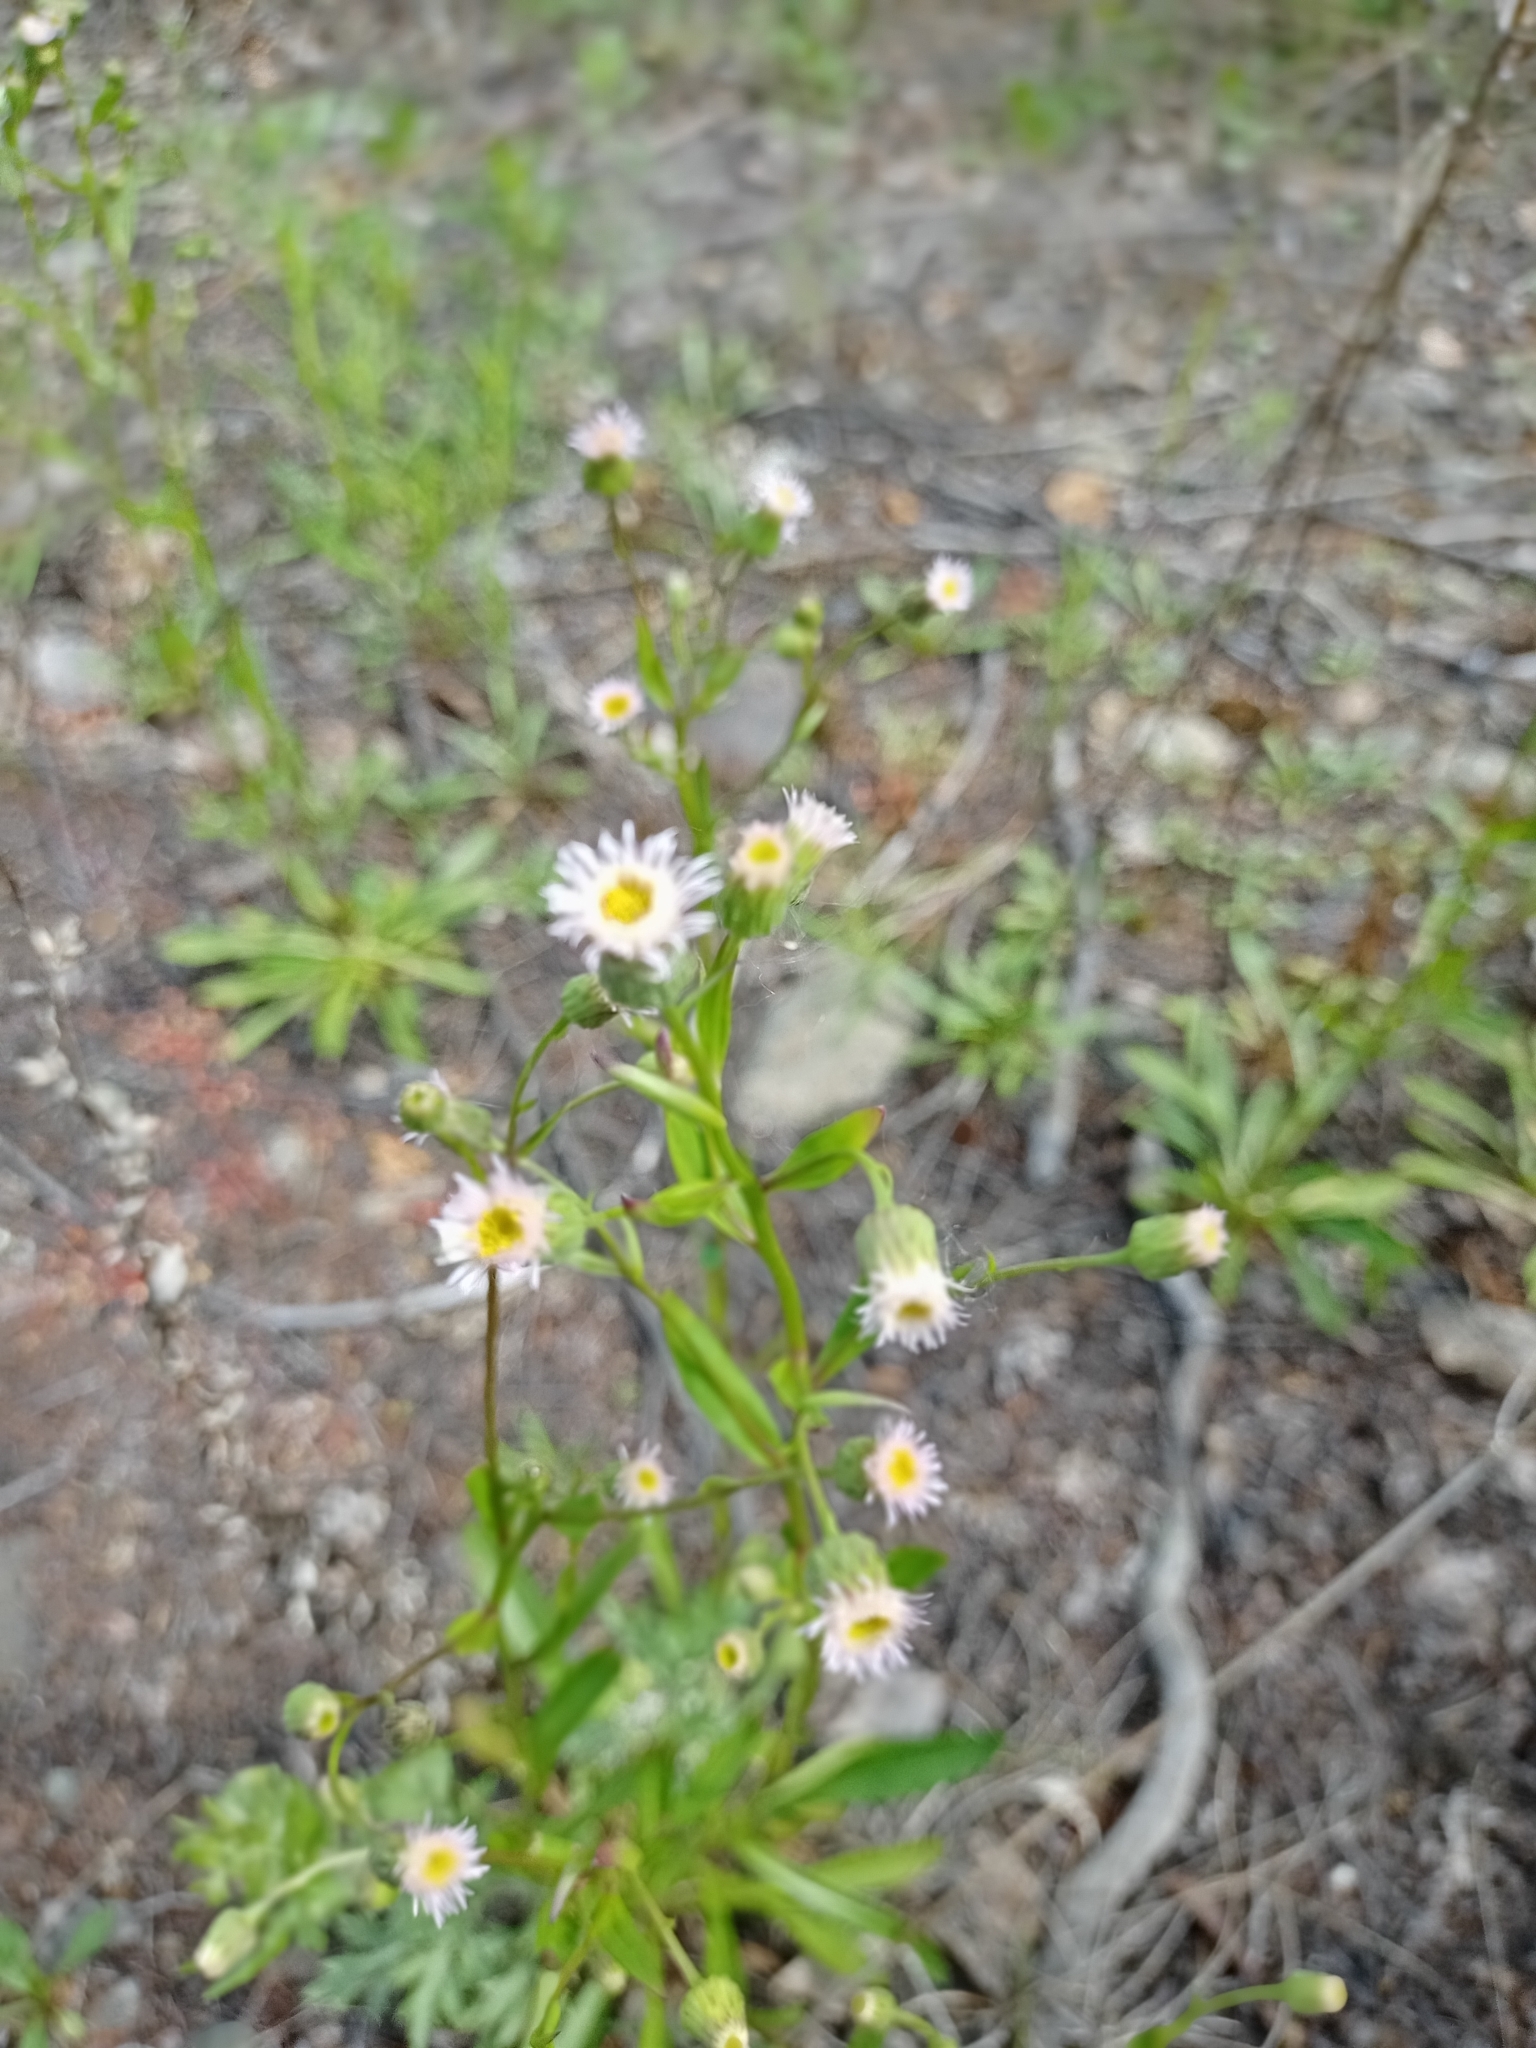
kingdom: Plantae
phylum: Tracheophyta
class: Magnoliopsida
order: Asterales
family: Asteraceae
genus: Erigeron
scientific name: Erigeron acris
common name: Blue fleabane
